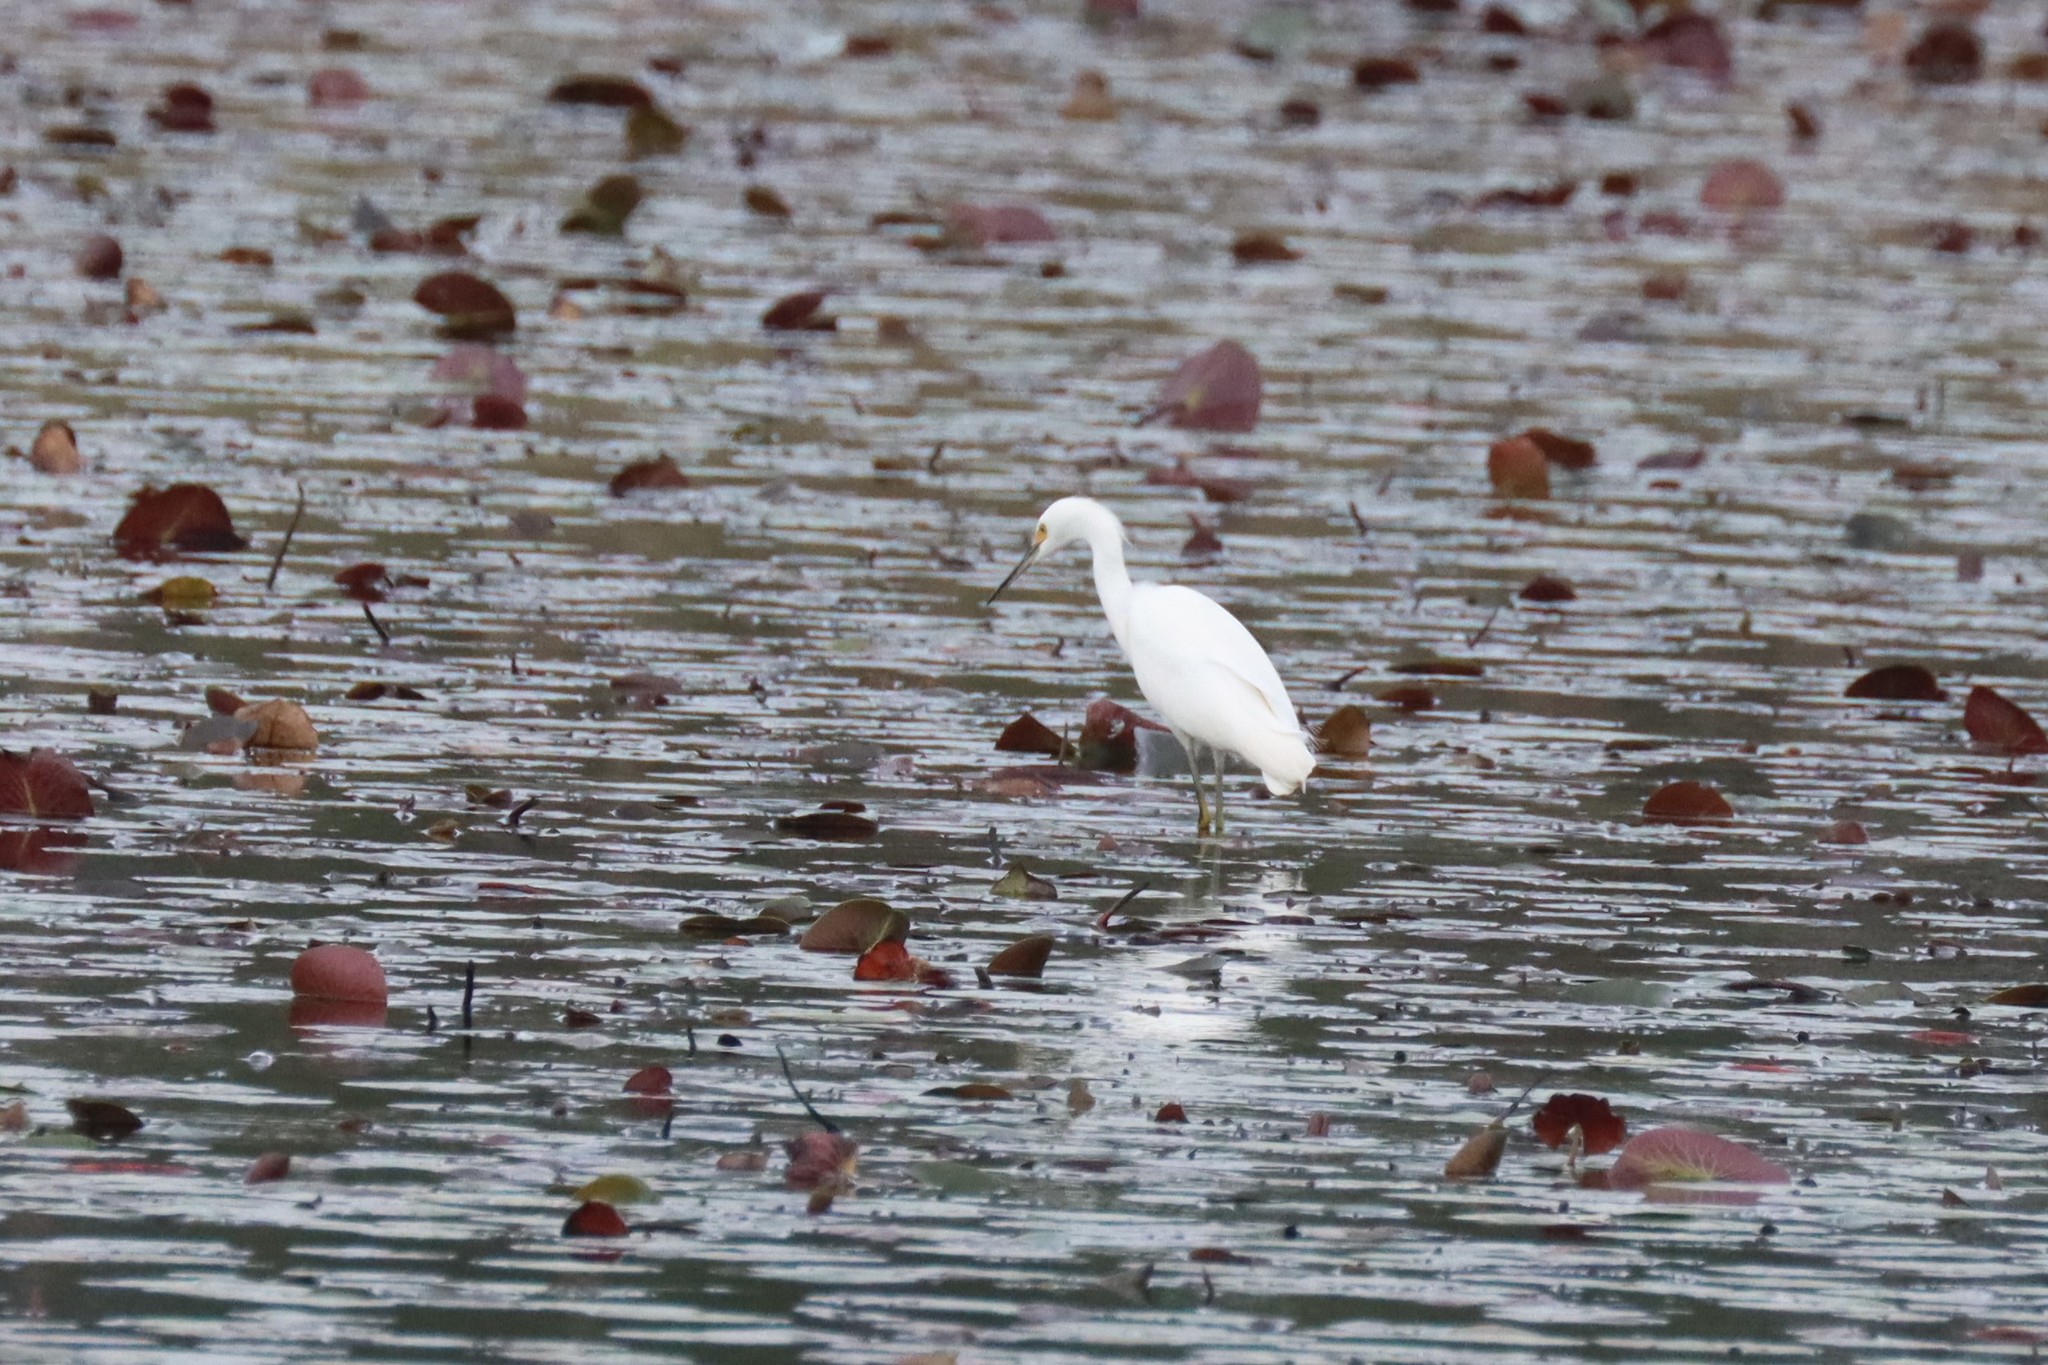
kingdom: Animalia
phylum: Chordata
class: Aves
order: Pelecaniformes
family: Ardeidae
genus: Egretta
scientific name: Egretta thula
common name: Snowy egret
